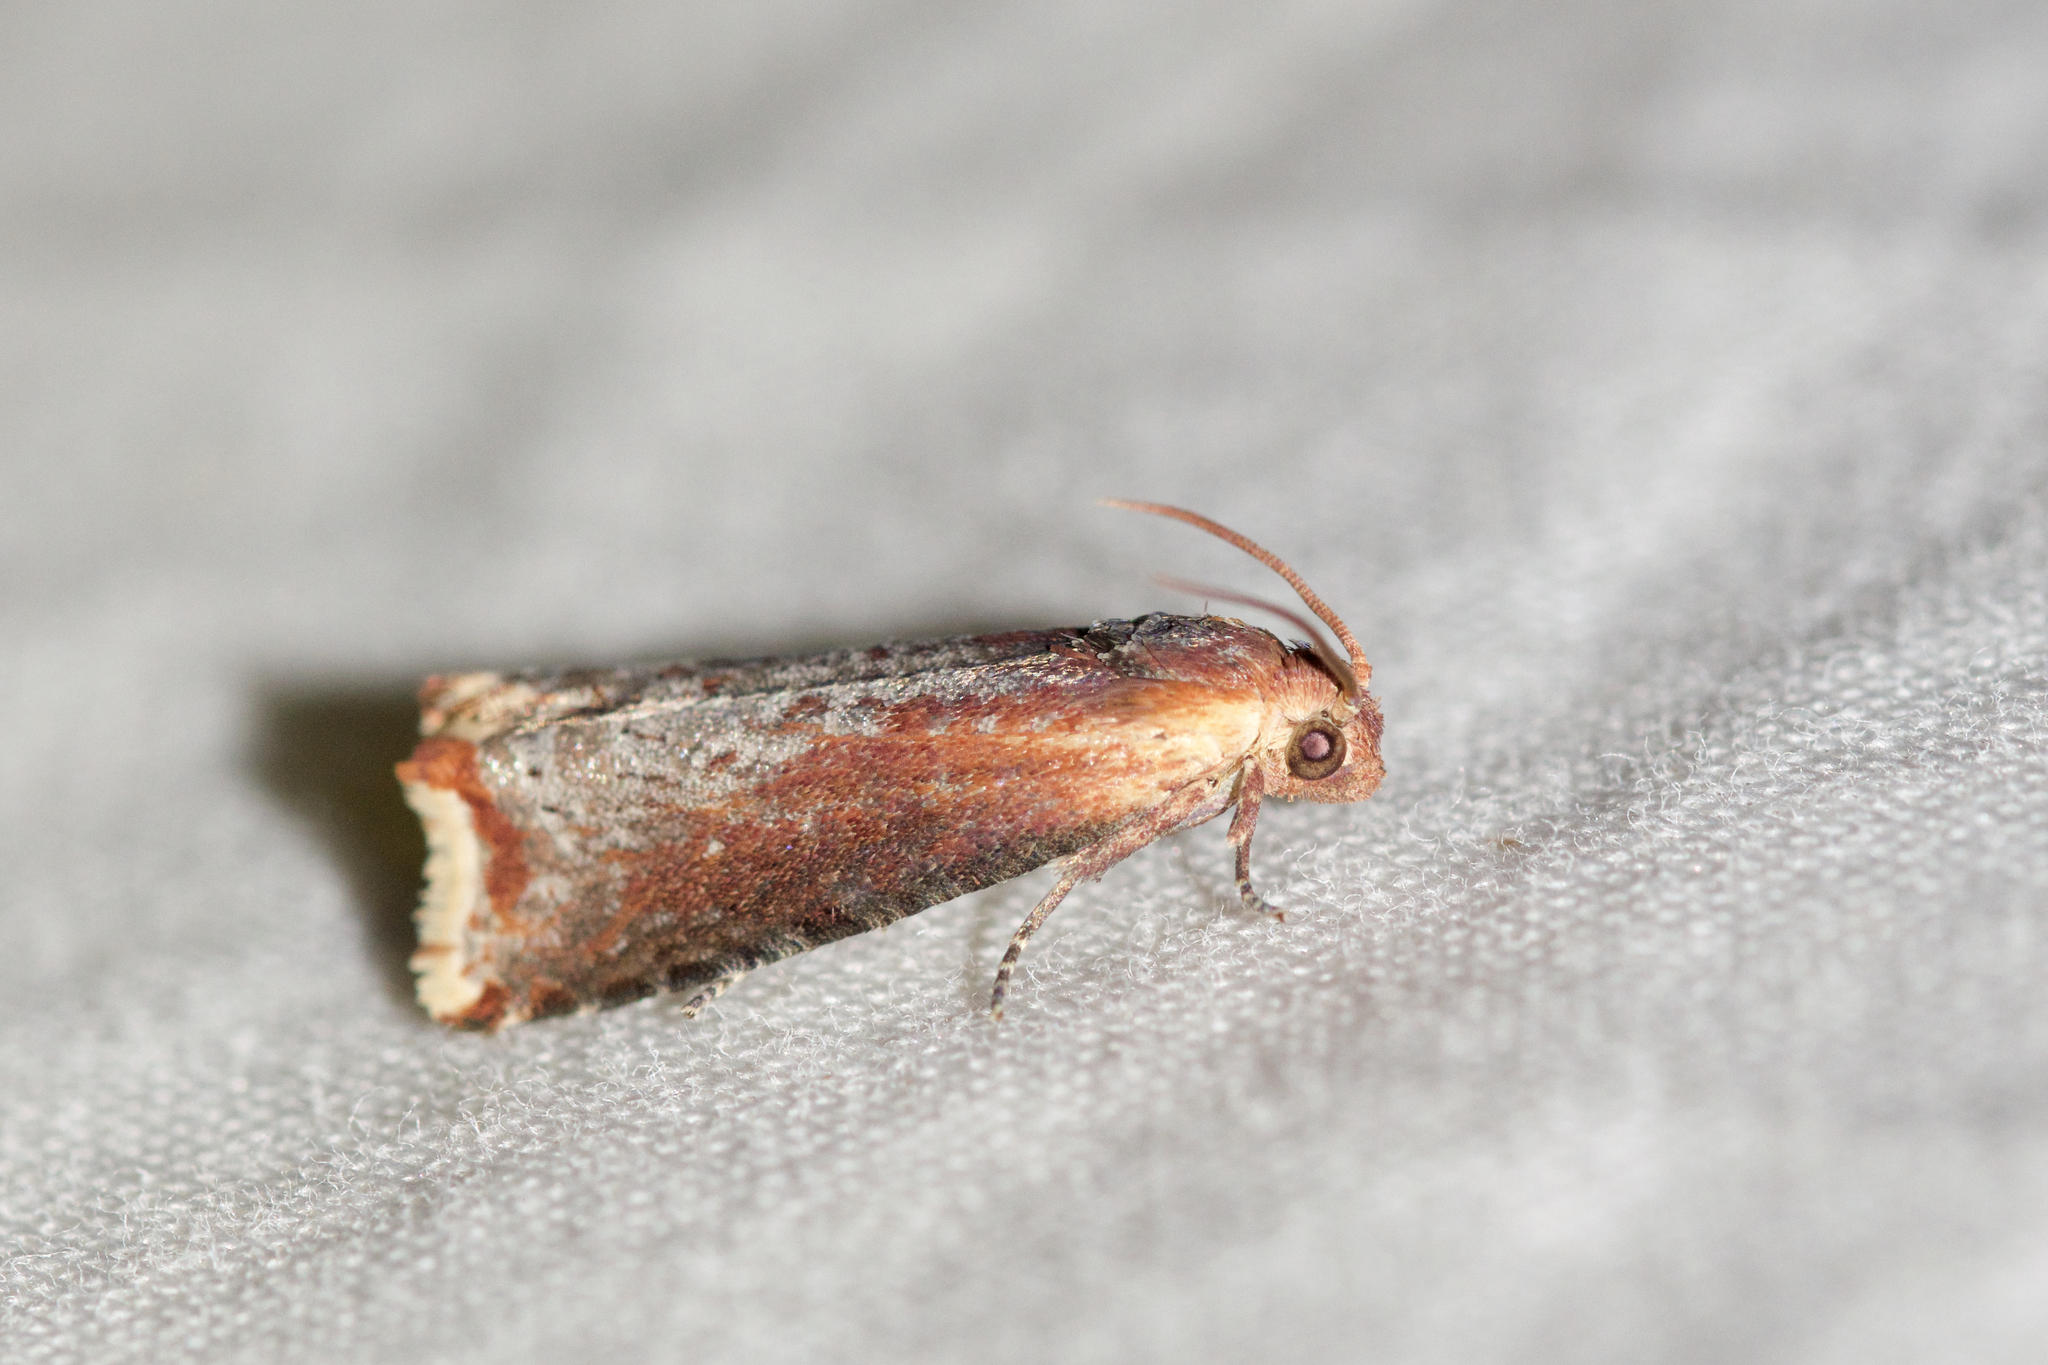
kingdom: Animalia
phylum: Arthropoda
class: Insecta
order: Lepidoptera
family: Tortricidae
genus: Pseudogalleria
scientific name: Pseudogalleria inimicella
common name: Inimical borer moth
